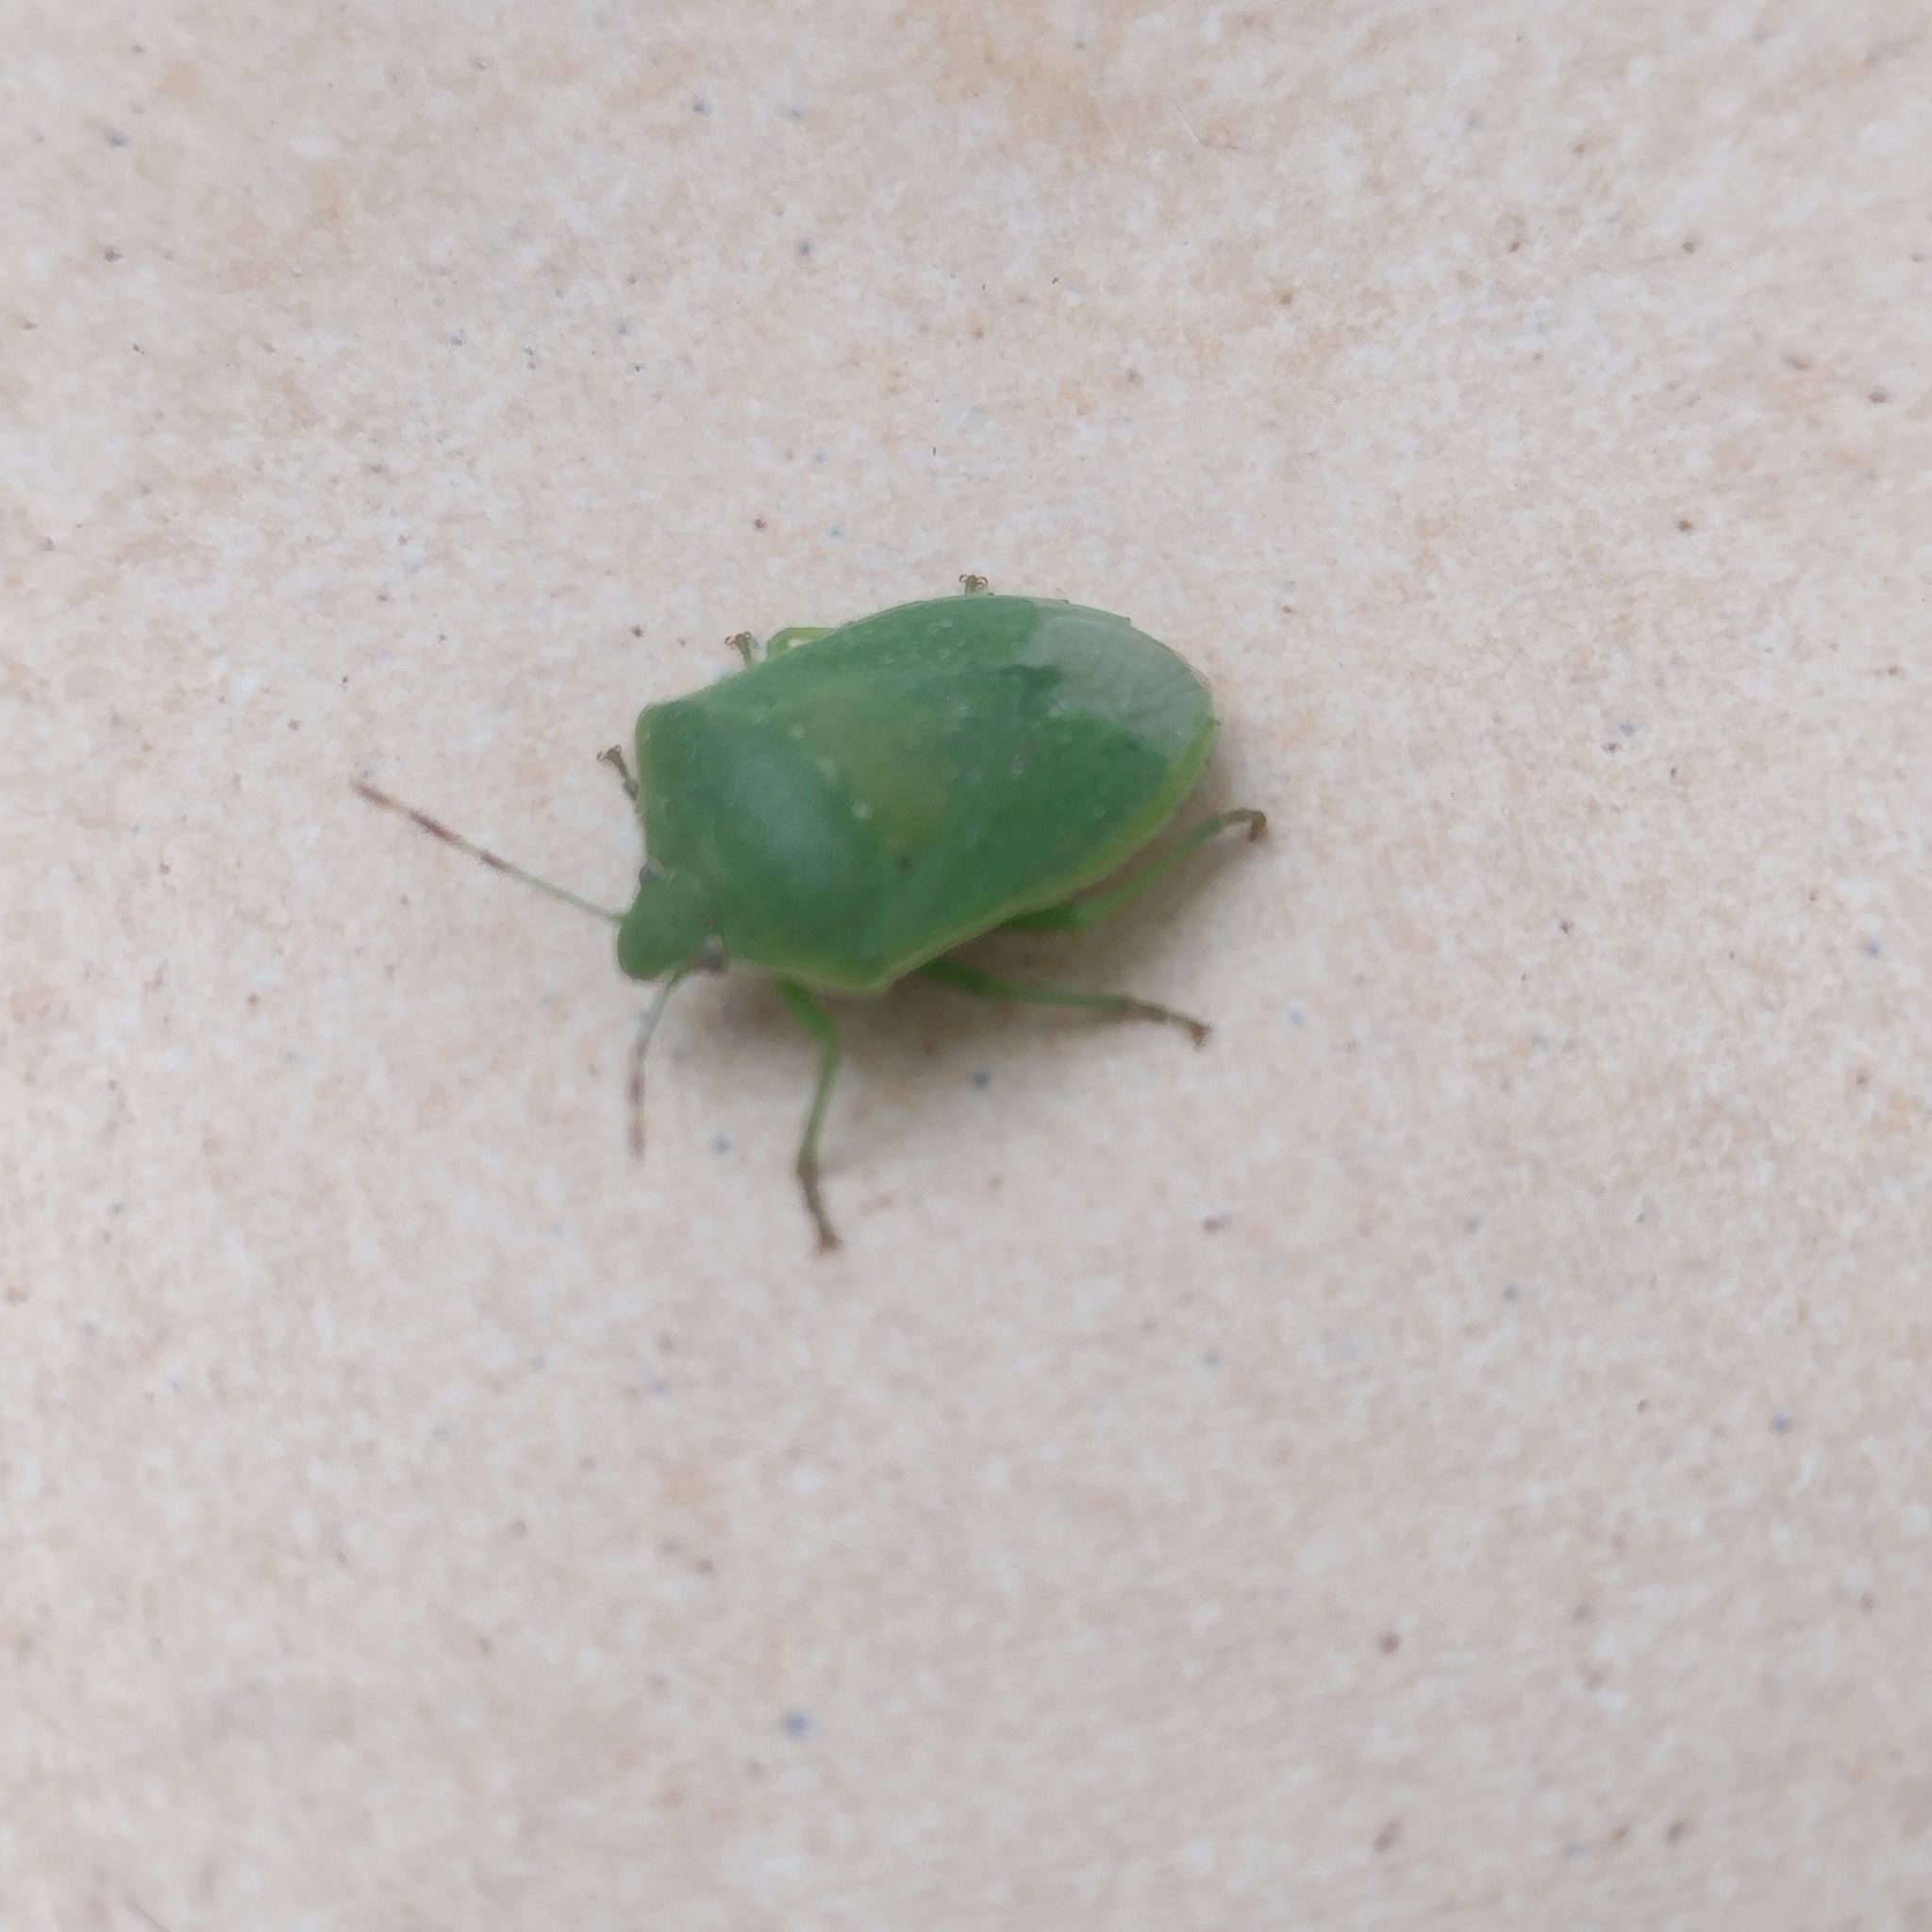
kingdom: Animalia
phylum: Arthropoda
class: Insecta
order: Hemiptera
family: Pentatomidae
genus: Nezara
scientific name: Nezara viridula
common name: Southern green stink bug
